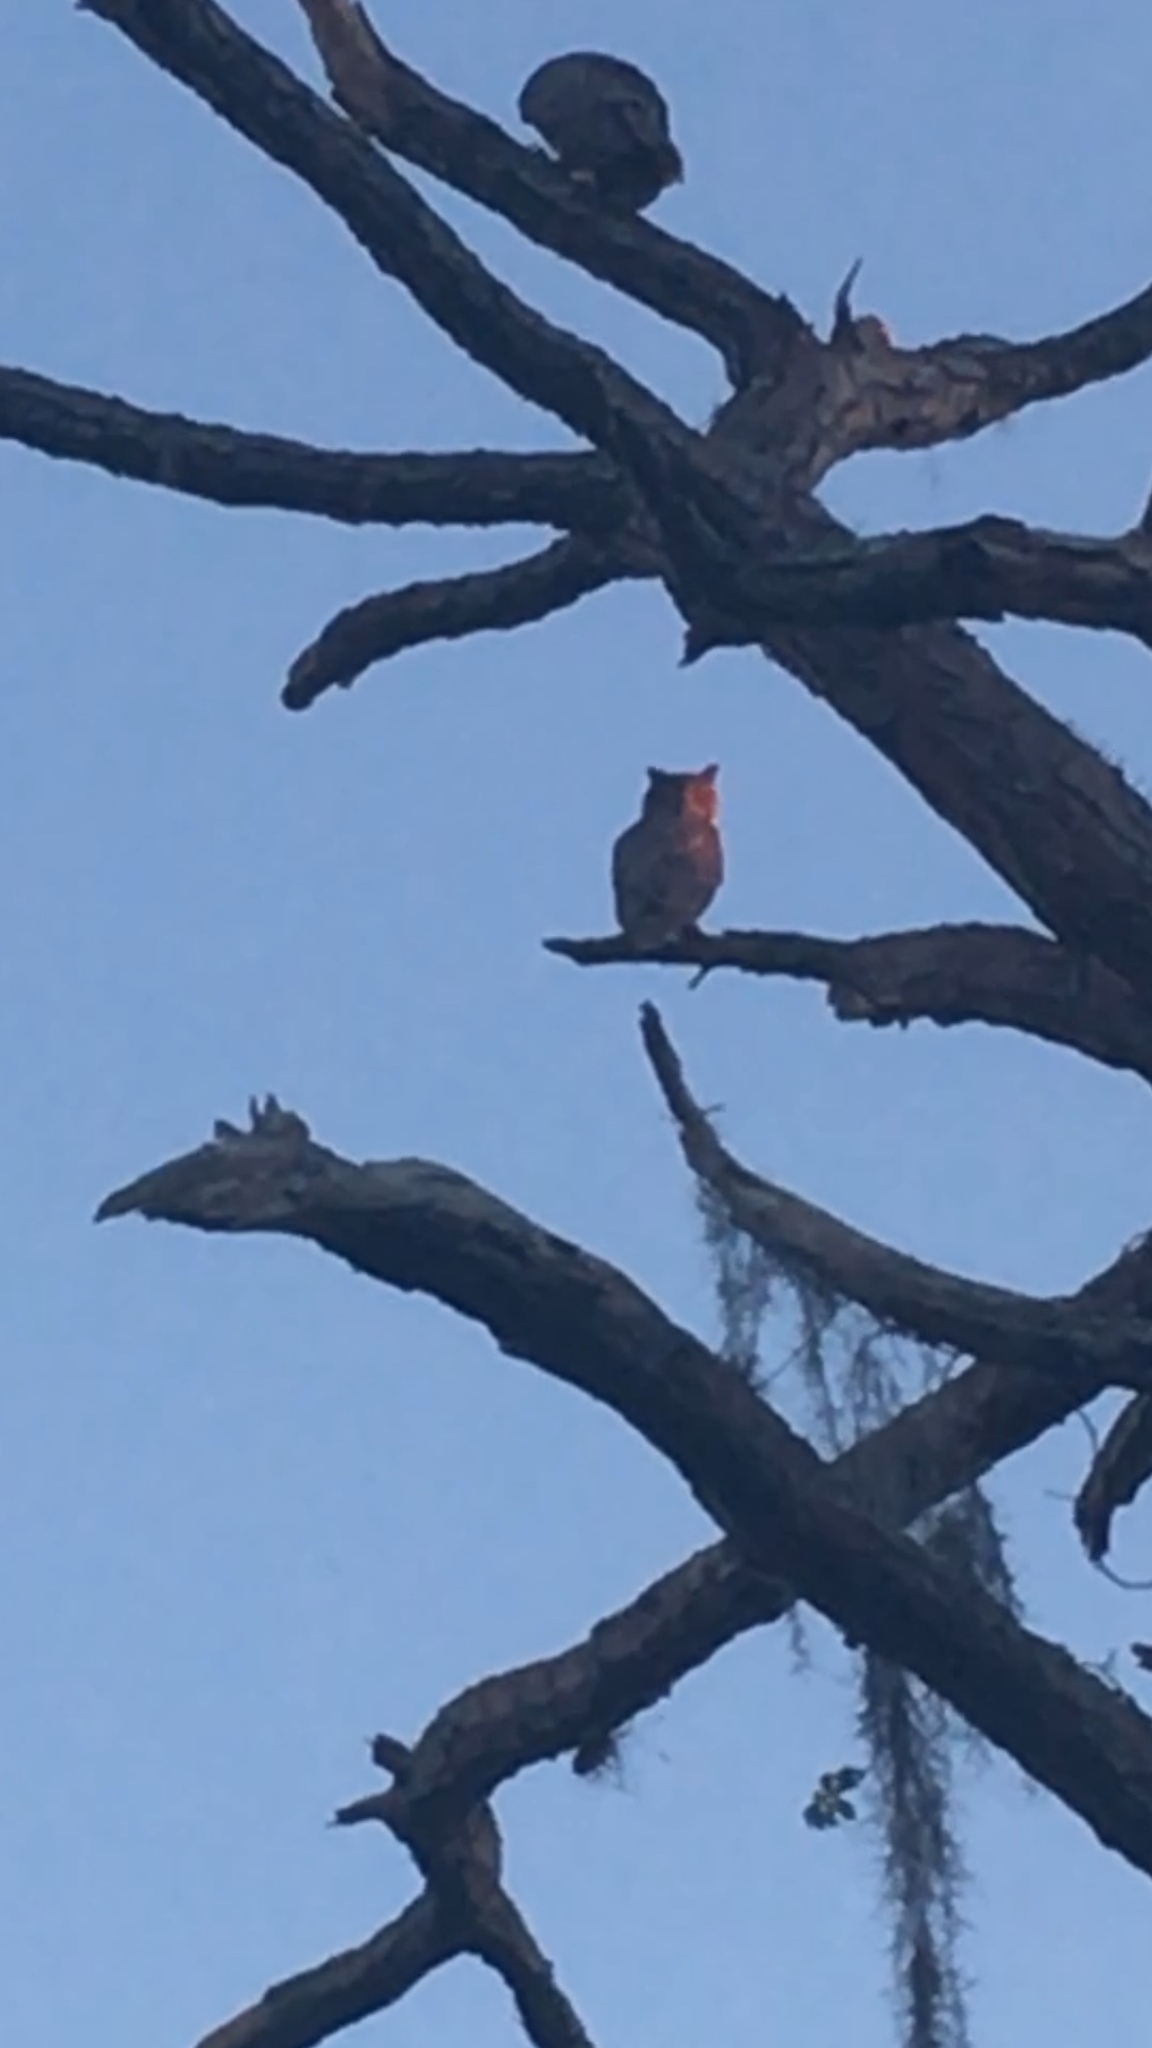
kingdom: Animalia
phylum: Chordata
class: Aves
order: Strigiformes
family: Strigidae
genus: Bubo
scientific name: Bubo virginianus
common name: Great horned owl
